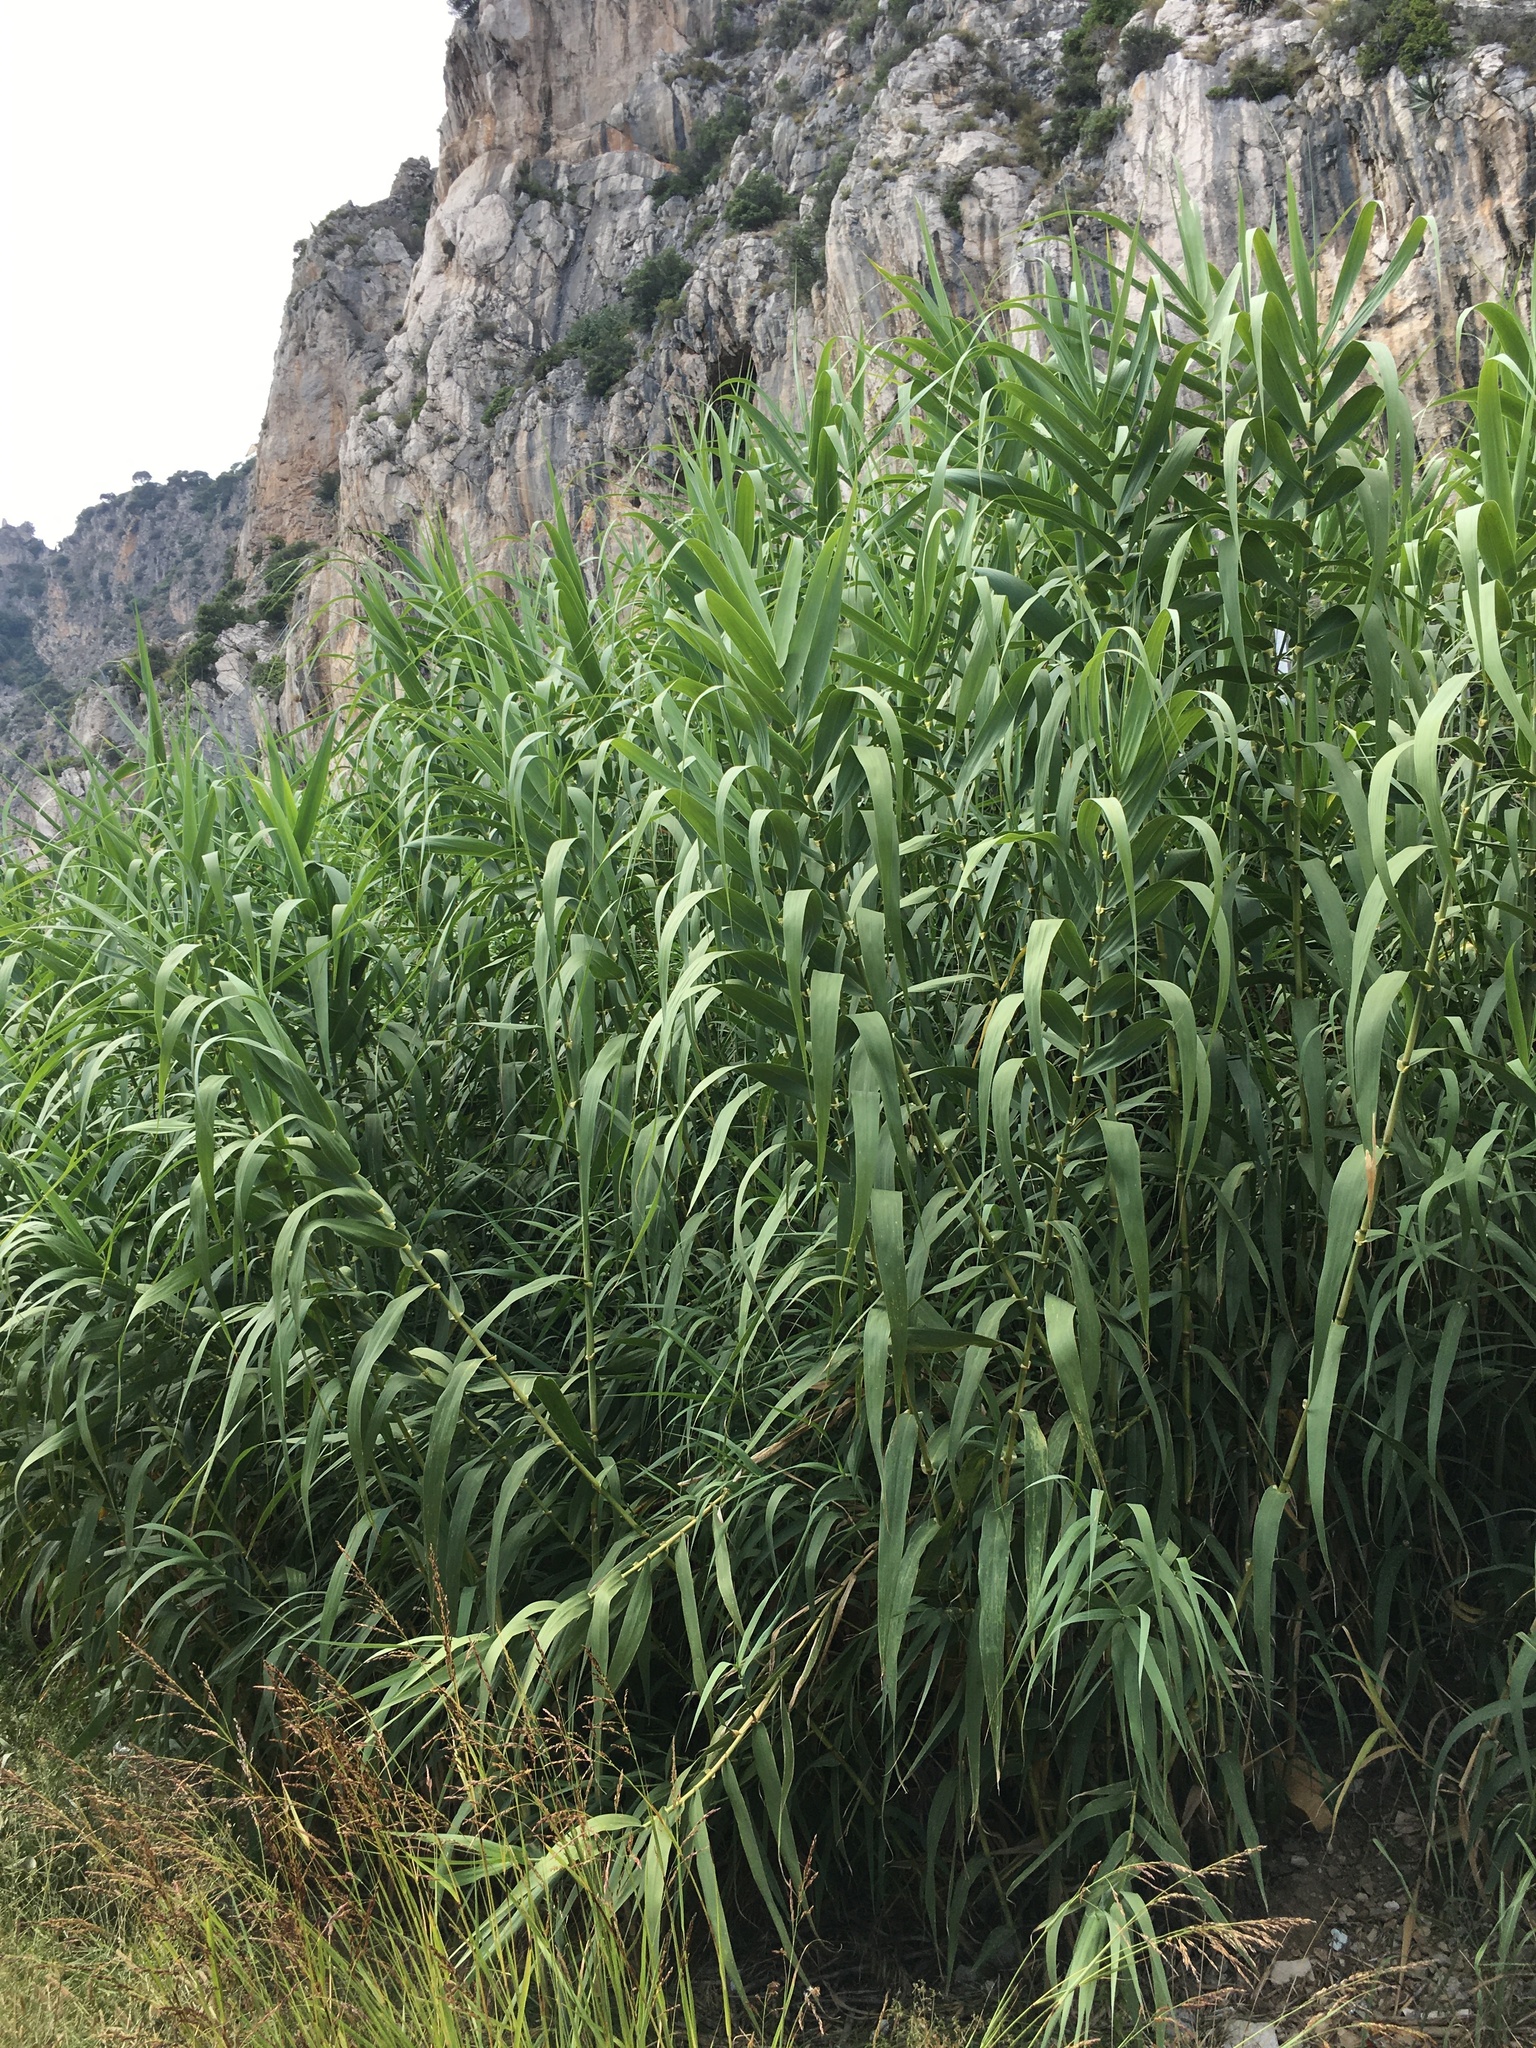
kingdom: Plantae
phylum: Tracheophyta
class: Liliopsida
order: Poales
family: Poaceae
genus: Arundo
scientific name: Arundo donax
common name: Giant reed
